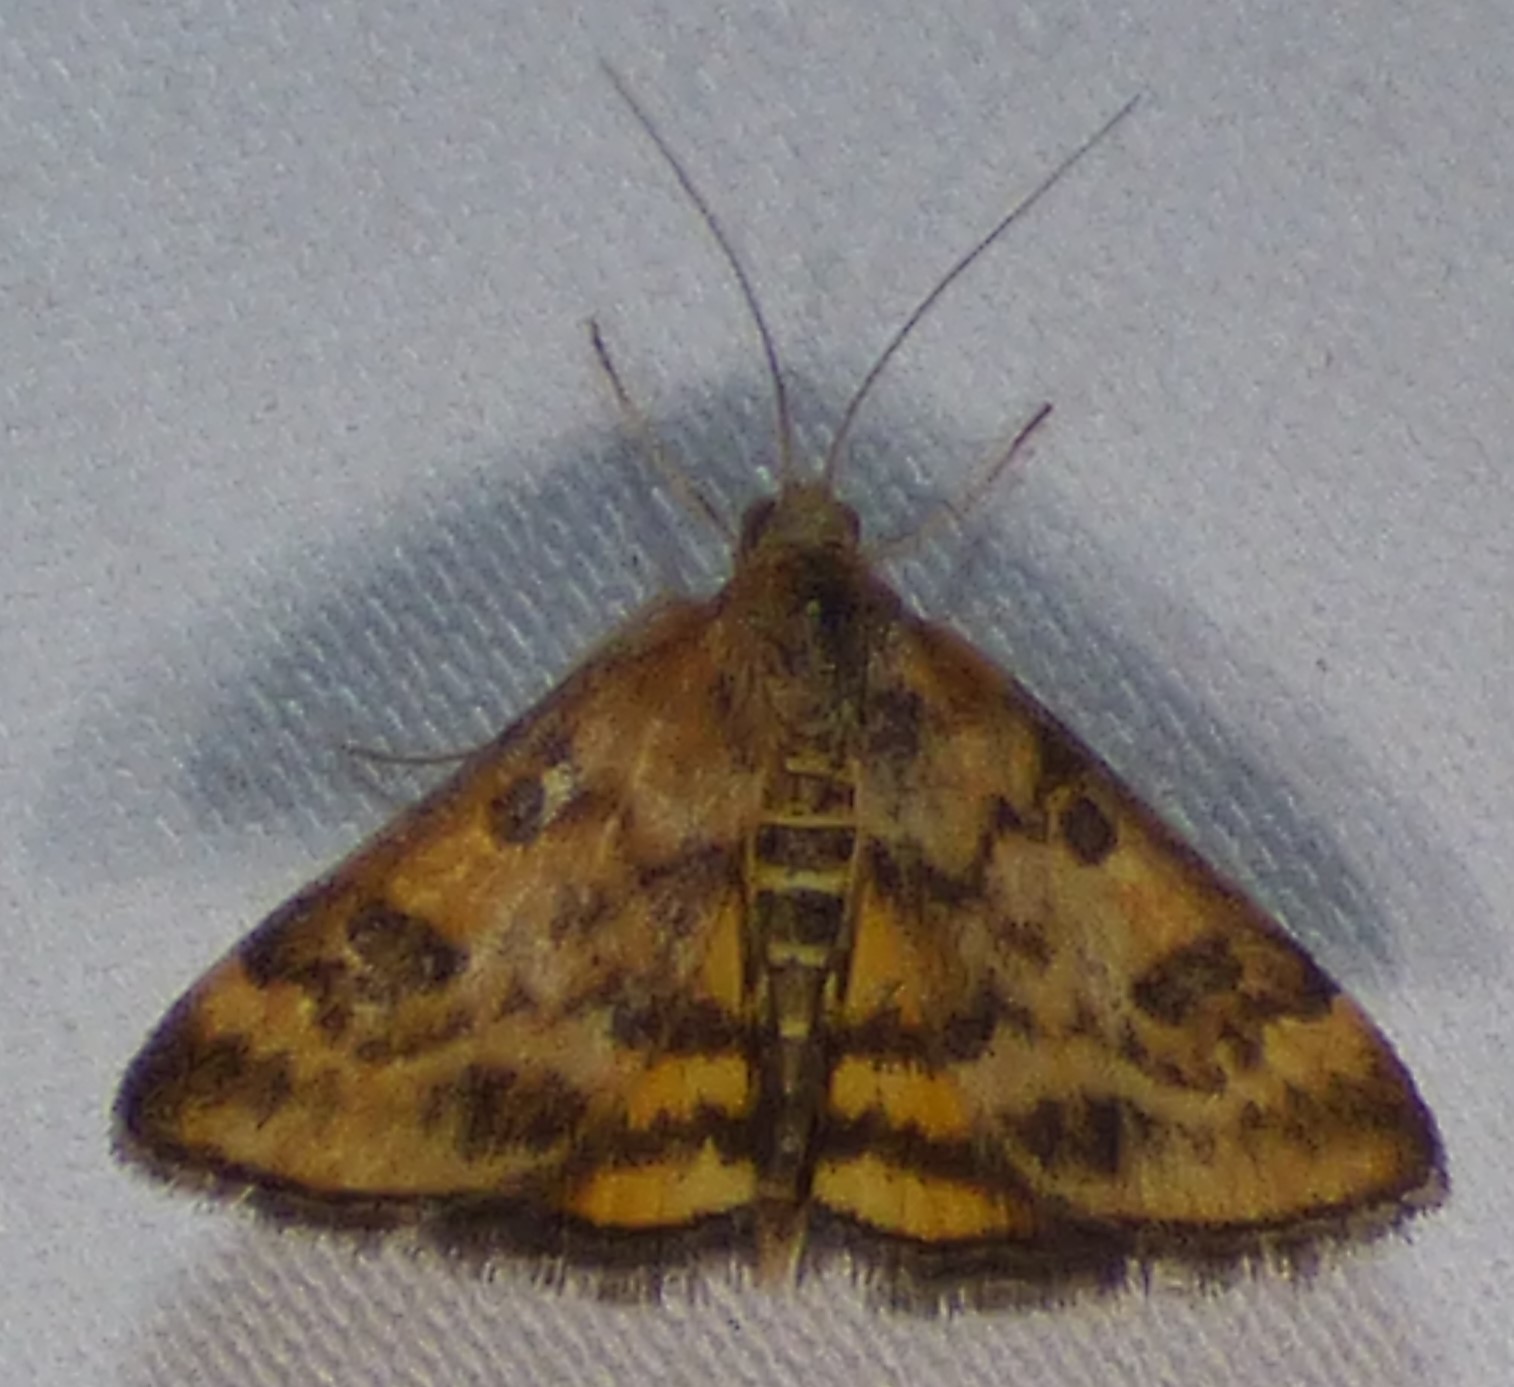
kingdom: Animalia
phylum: Arthropoda
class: Insecta
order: Lepidoptera
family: Crambidae
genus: Pyrausta
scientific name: Pyrausta subsequalis
